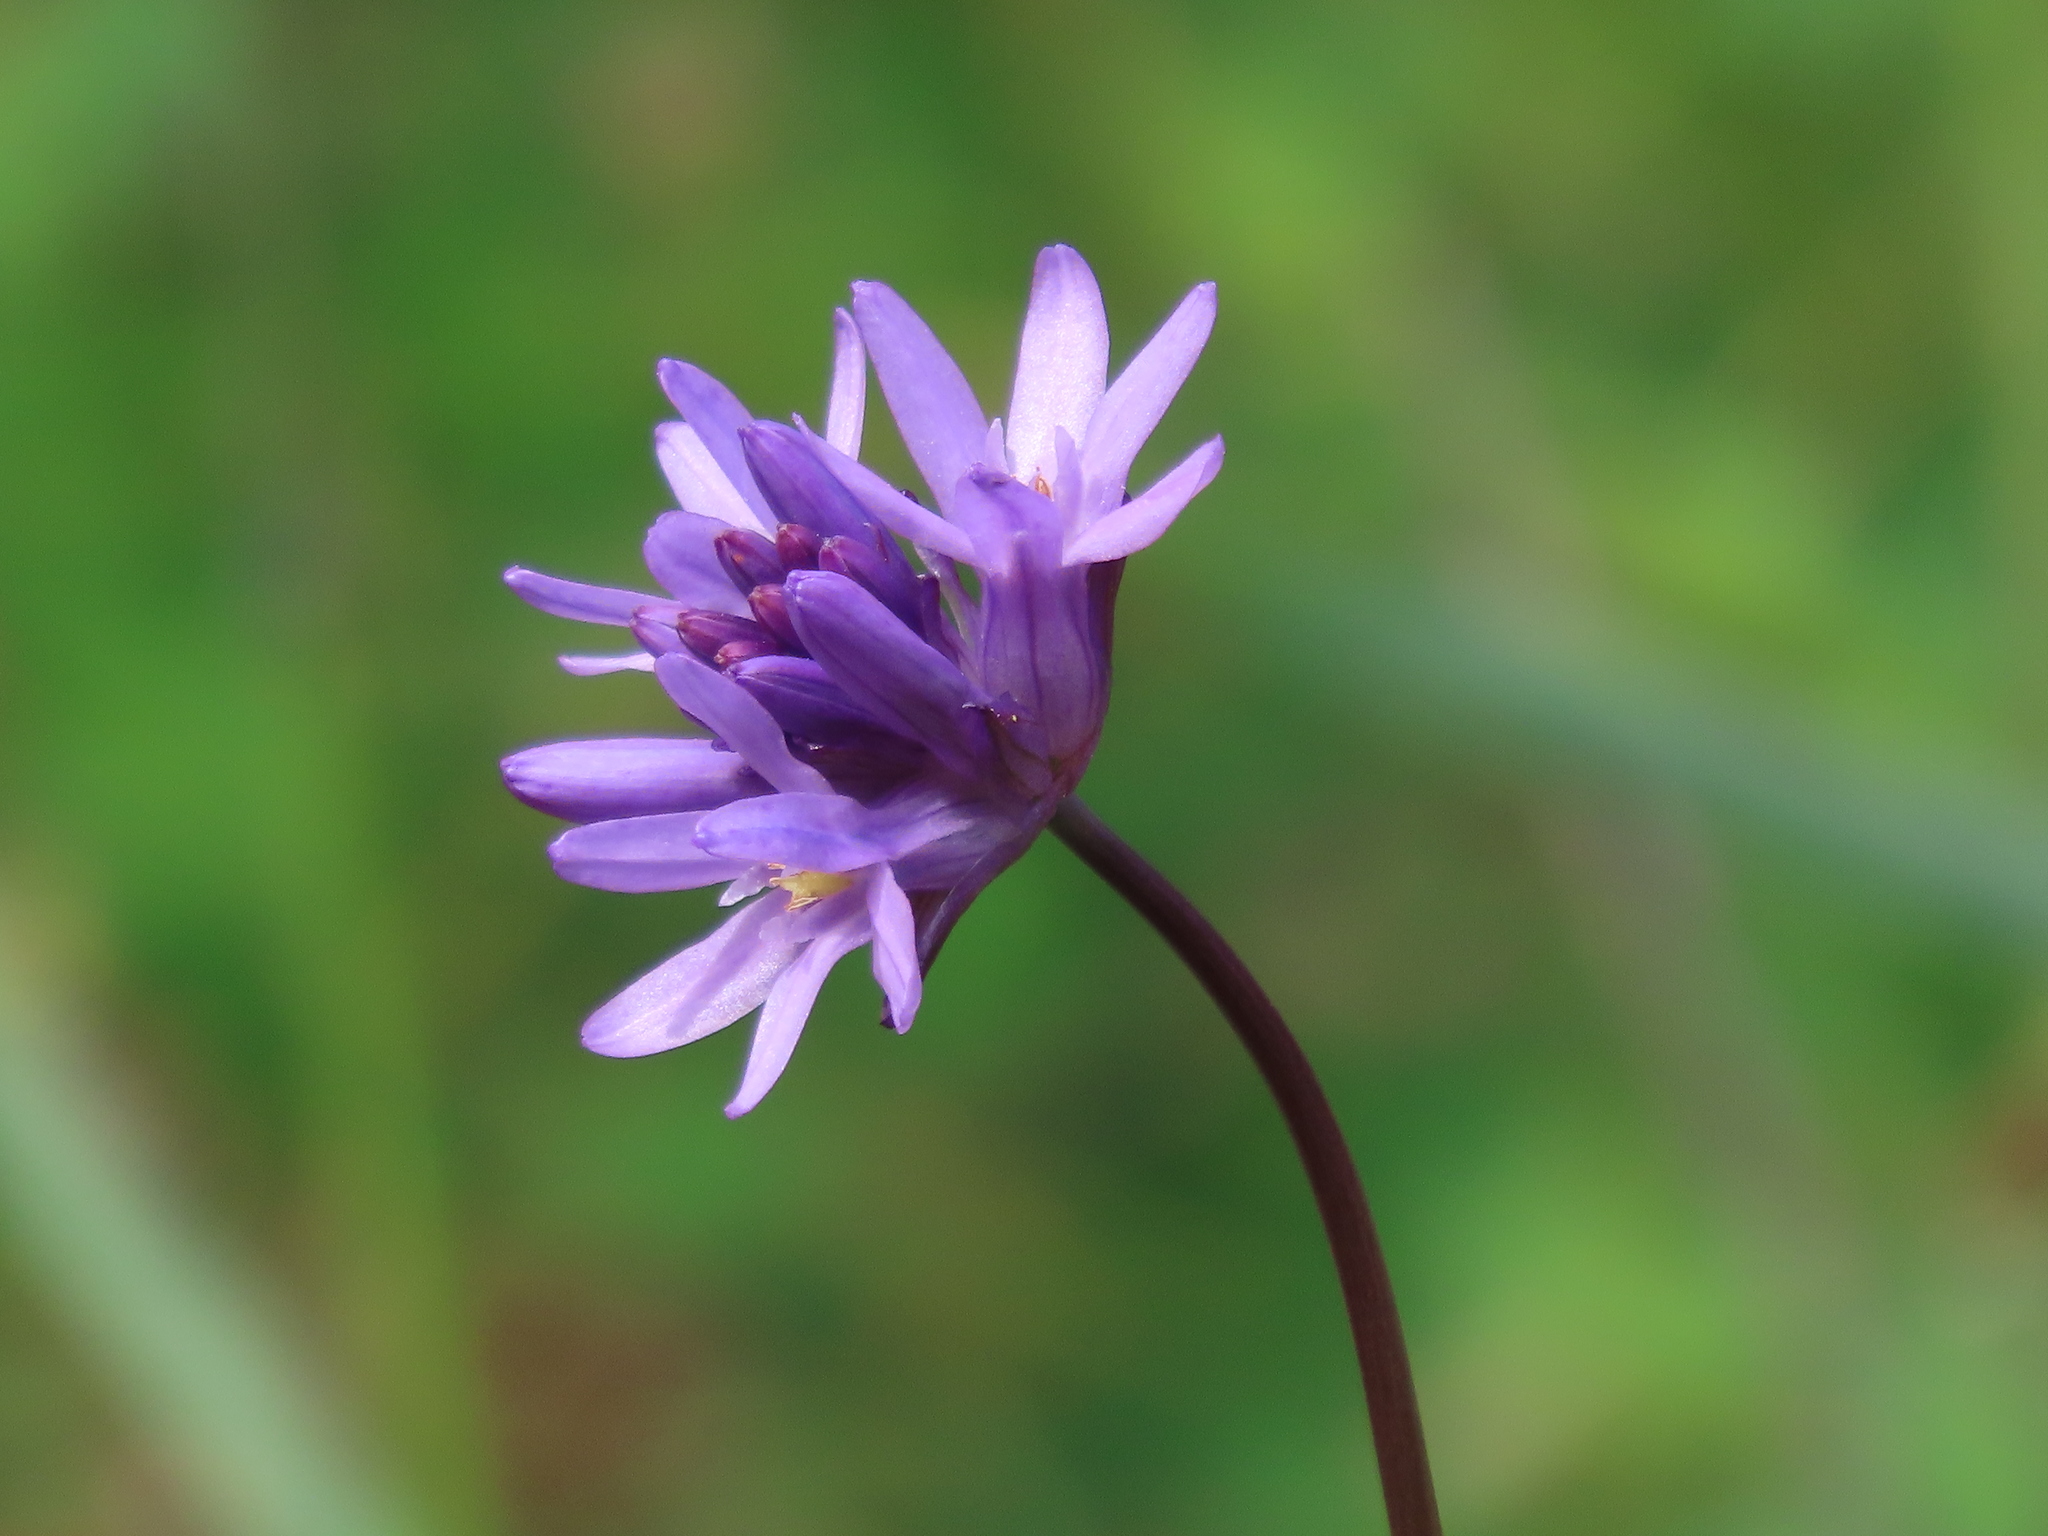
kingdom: Plantae
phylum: Tracheophyta
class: Liliopsida
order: Asparagales
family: Asparagaceae
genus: Dichelostemma
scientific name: Dichelostemma congestum
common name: Fork-tooth ookow
